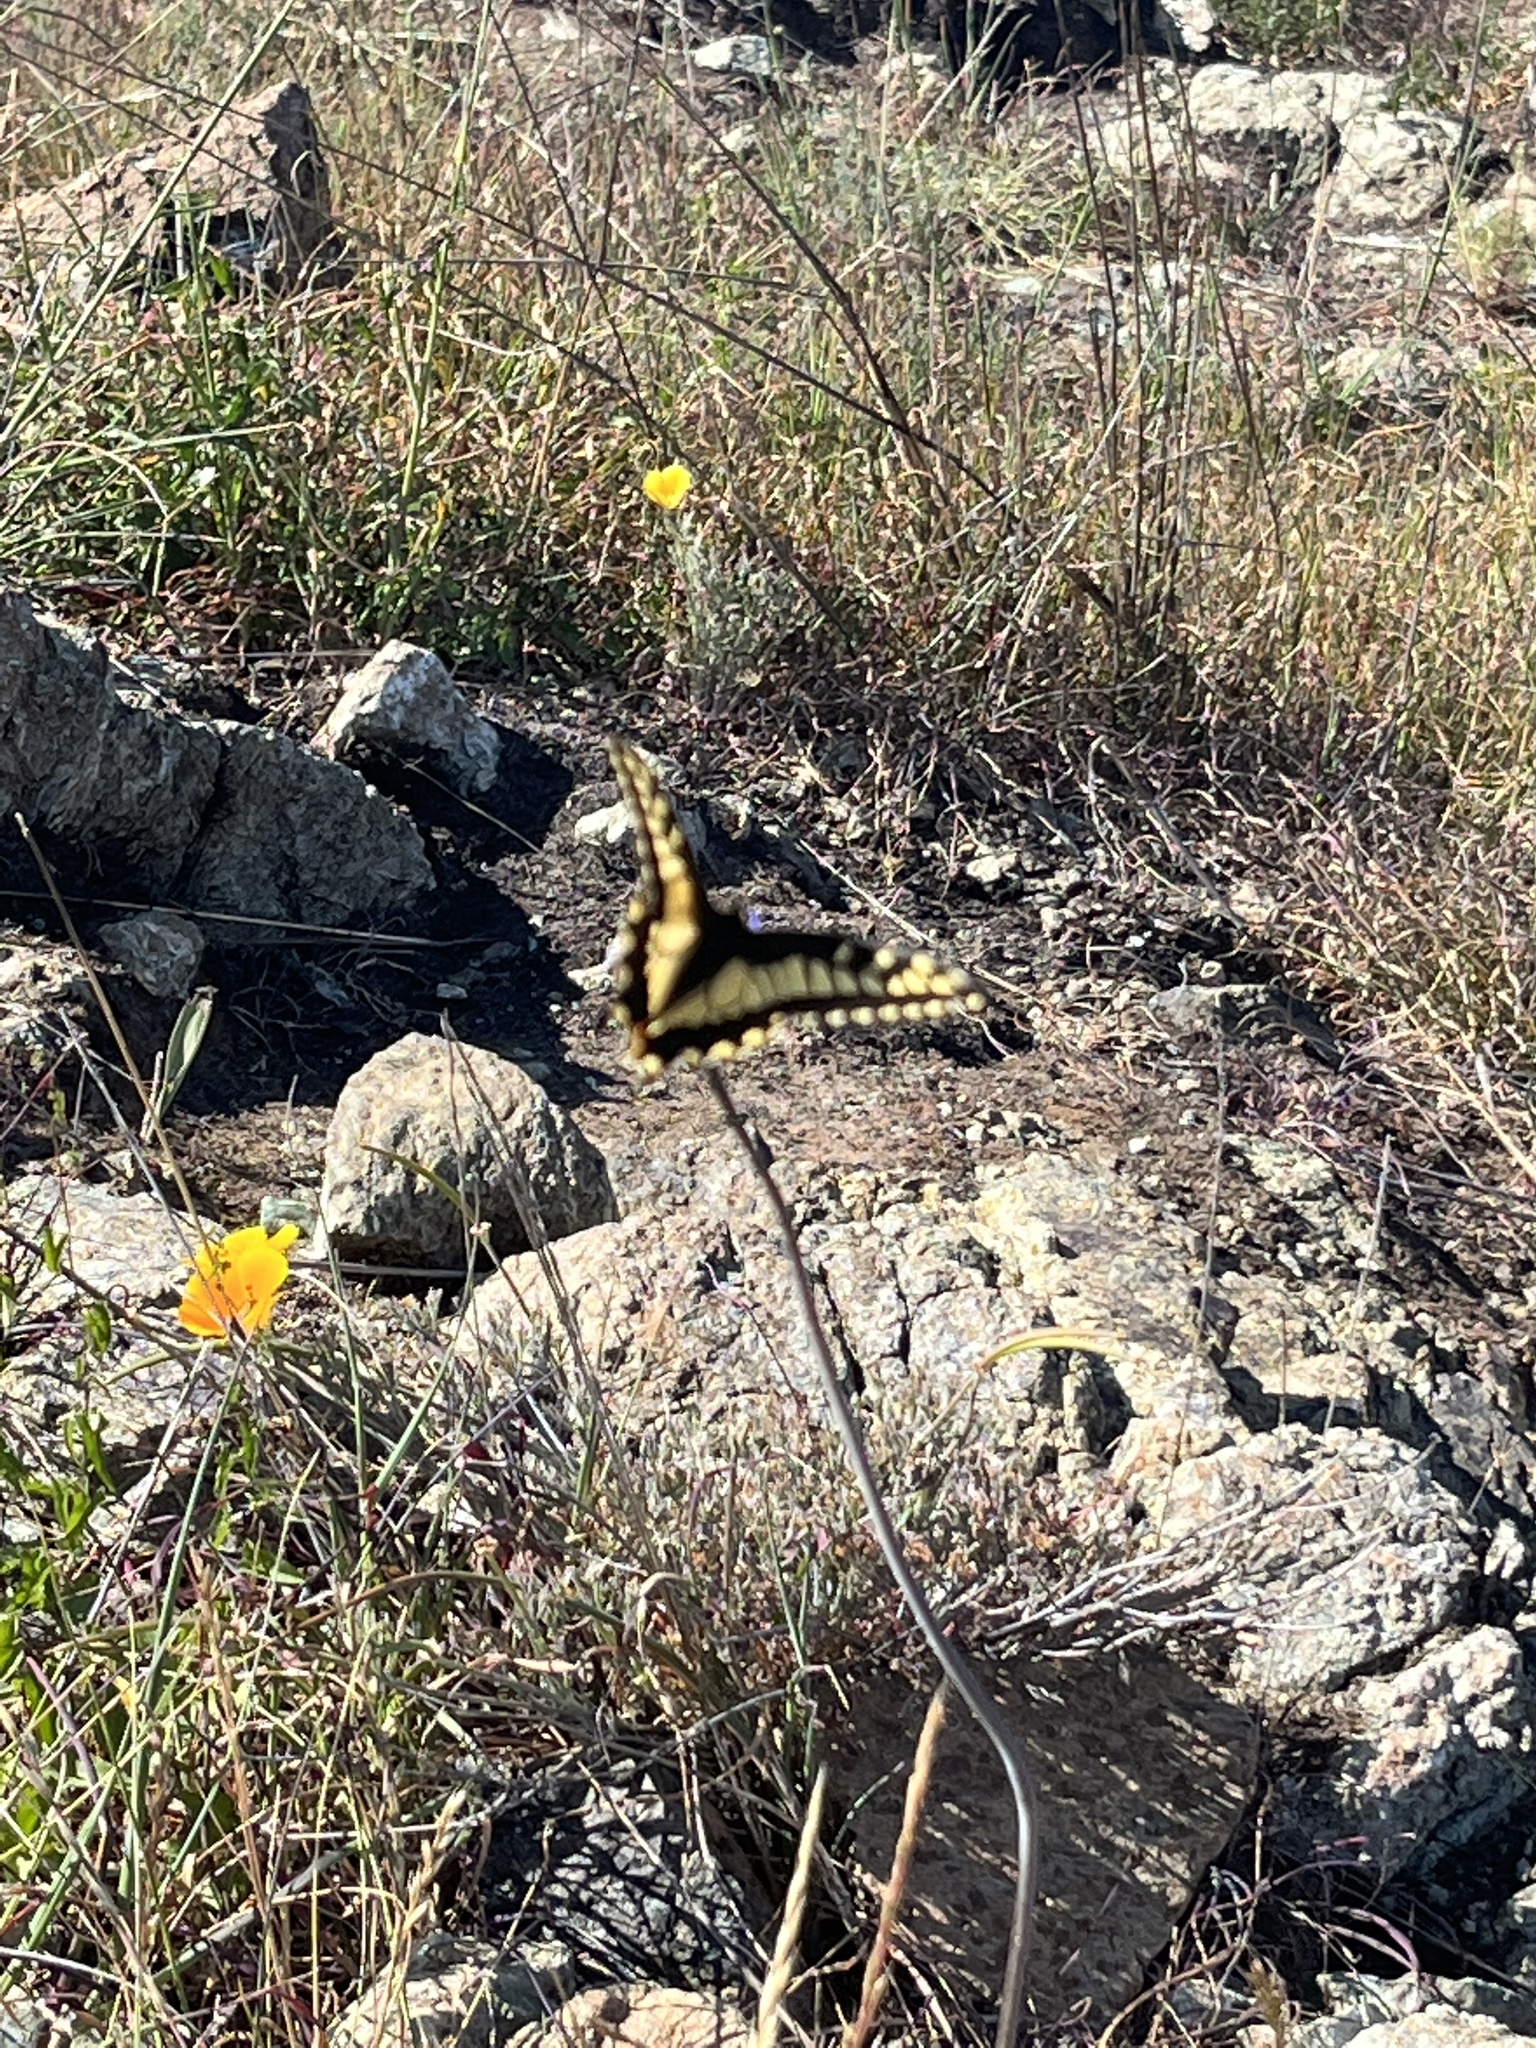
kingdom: Animalia
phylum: Arthropoda
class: Insecta
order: Lepidoptera
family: Papilionidae
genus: Papilio
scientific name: Papilio zelicaon
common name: Anise swallowtail
